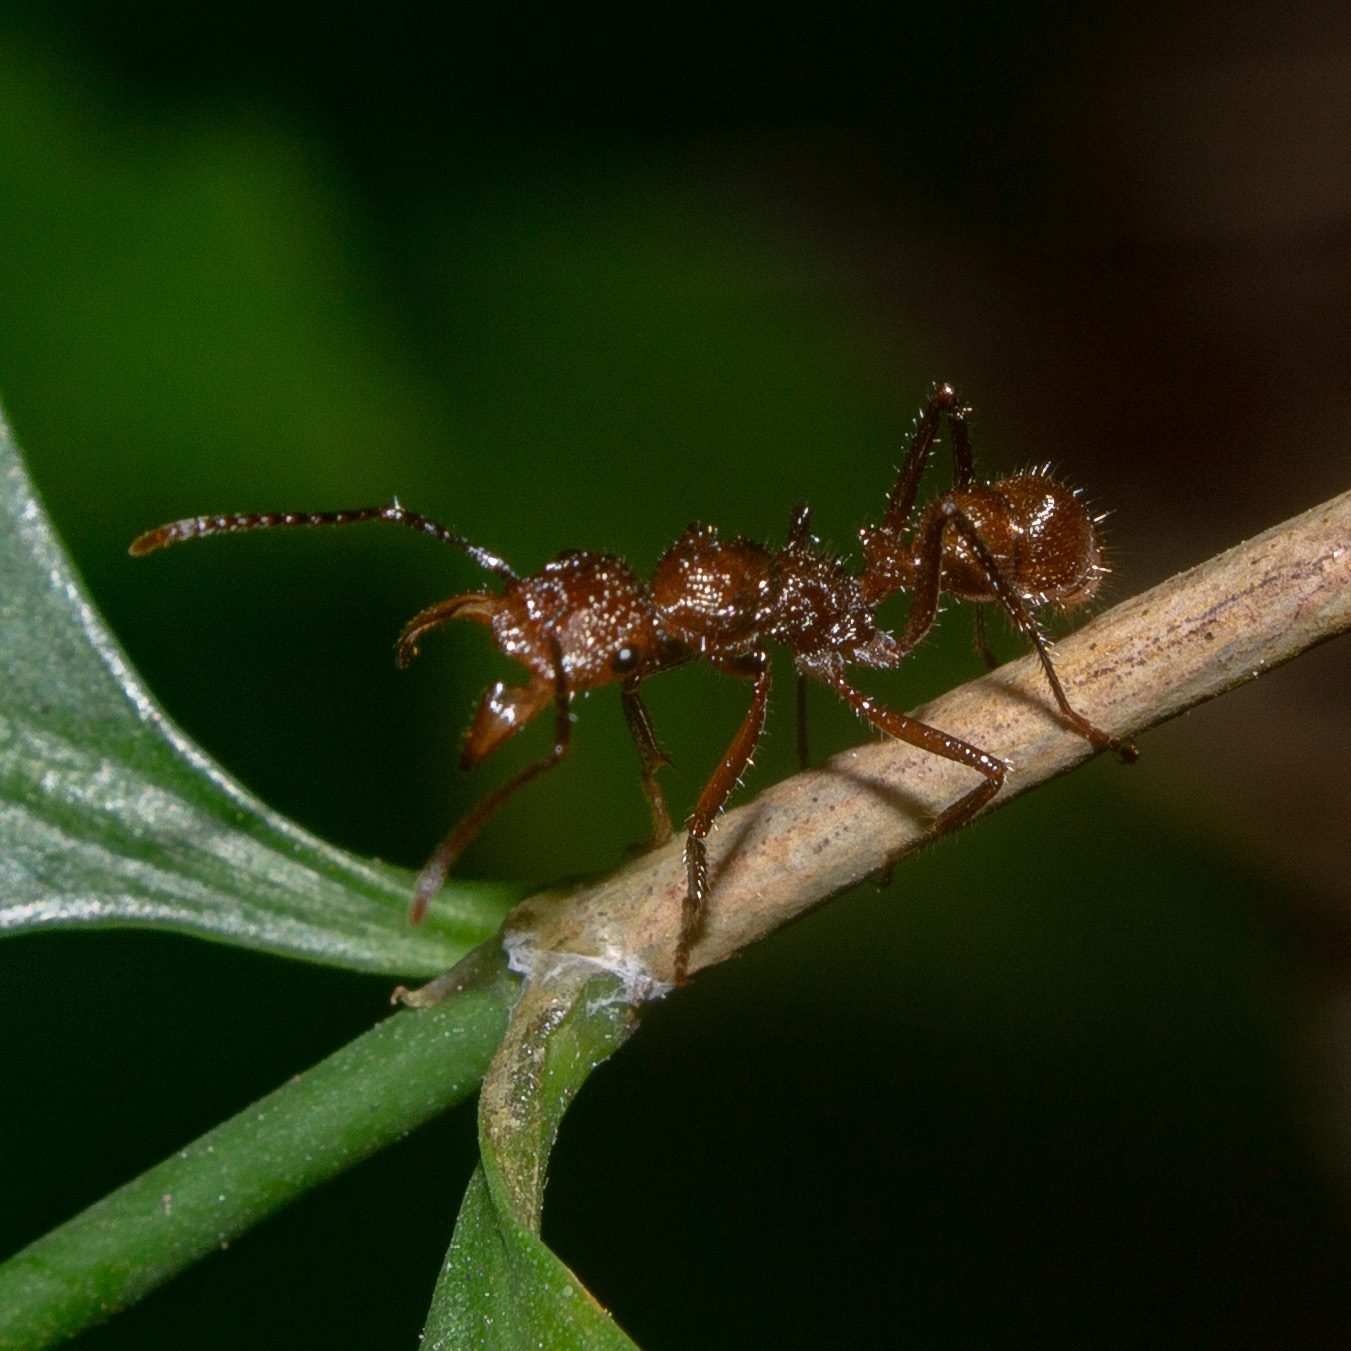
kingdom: Animalia
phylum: Arthropoda
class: Insecta
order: Hymenoptera
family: Formicidae
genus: Ectatomma
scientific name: Ectatomma tuberculatum
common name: Ant
